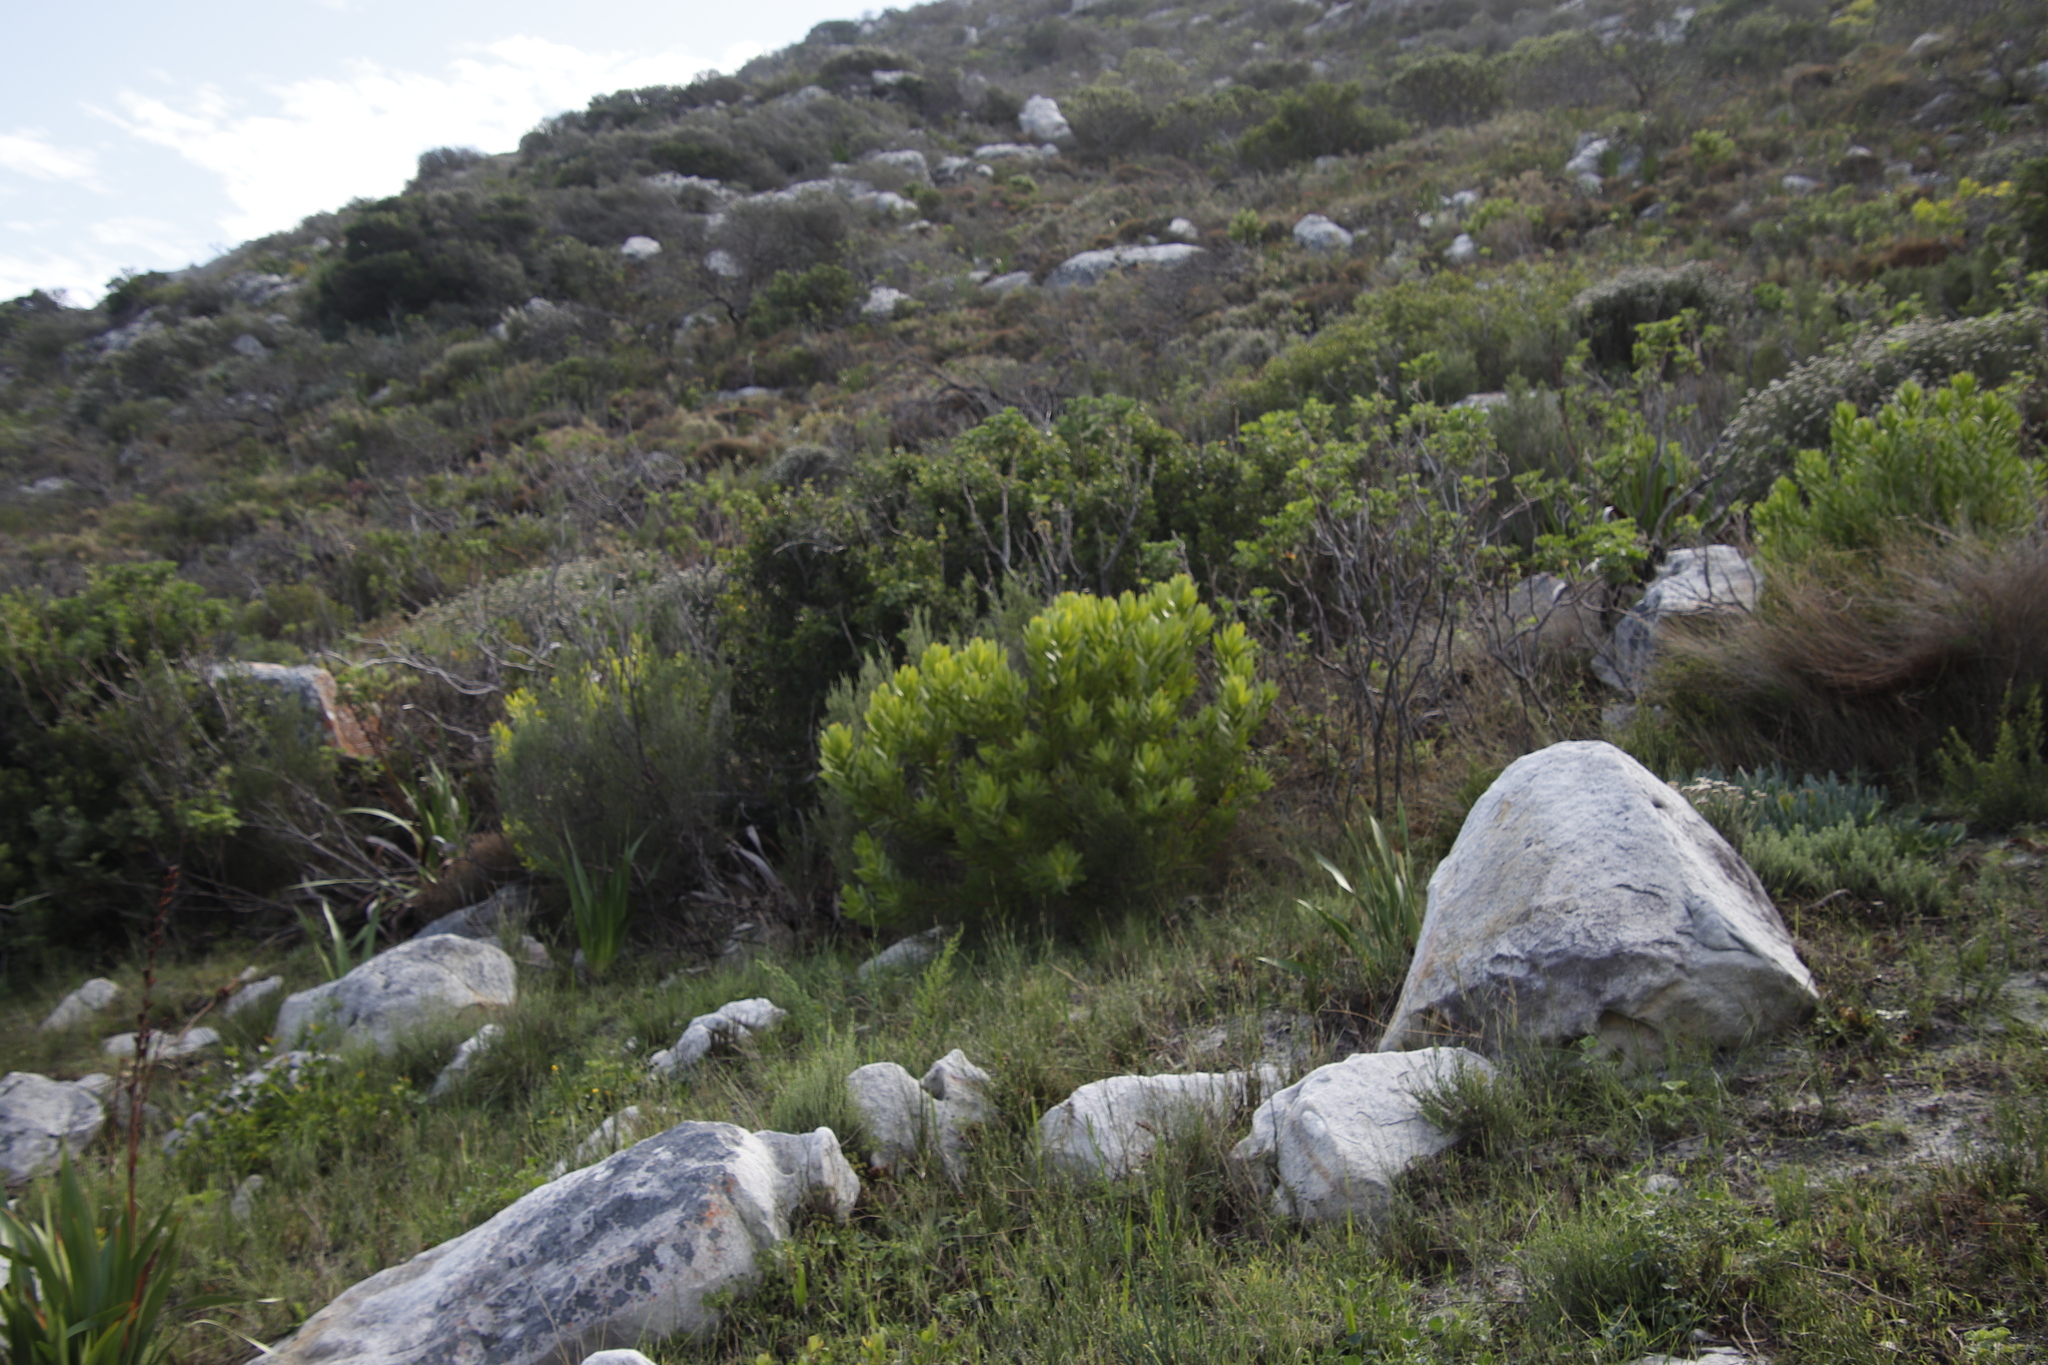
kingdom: Plantae
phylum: Tracheophyta
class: Magnoliopsida
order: Proteales
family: Proteaceae
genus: Leucadendron
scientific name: Leucadendron laureolum
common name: Golden sunshinebush
